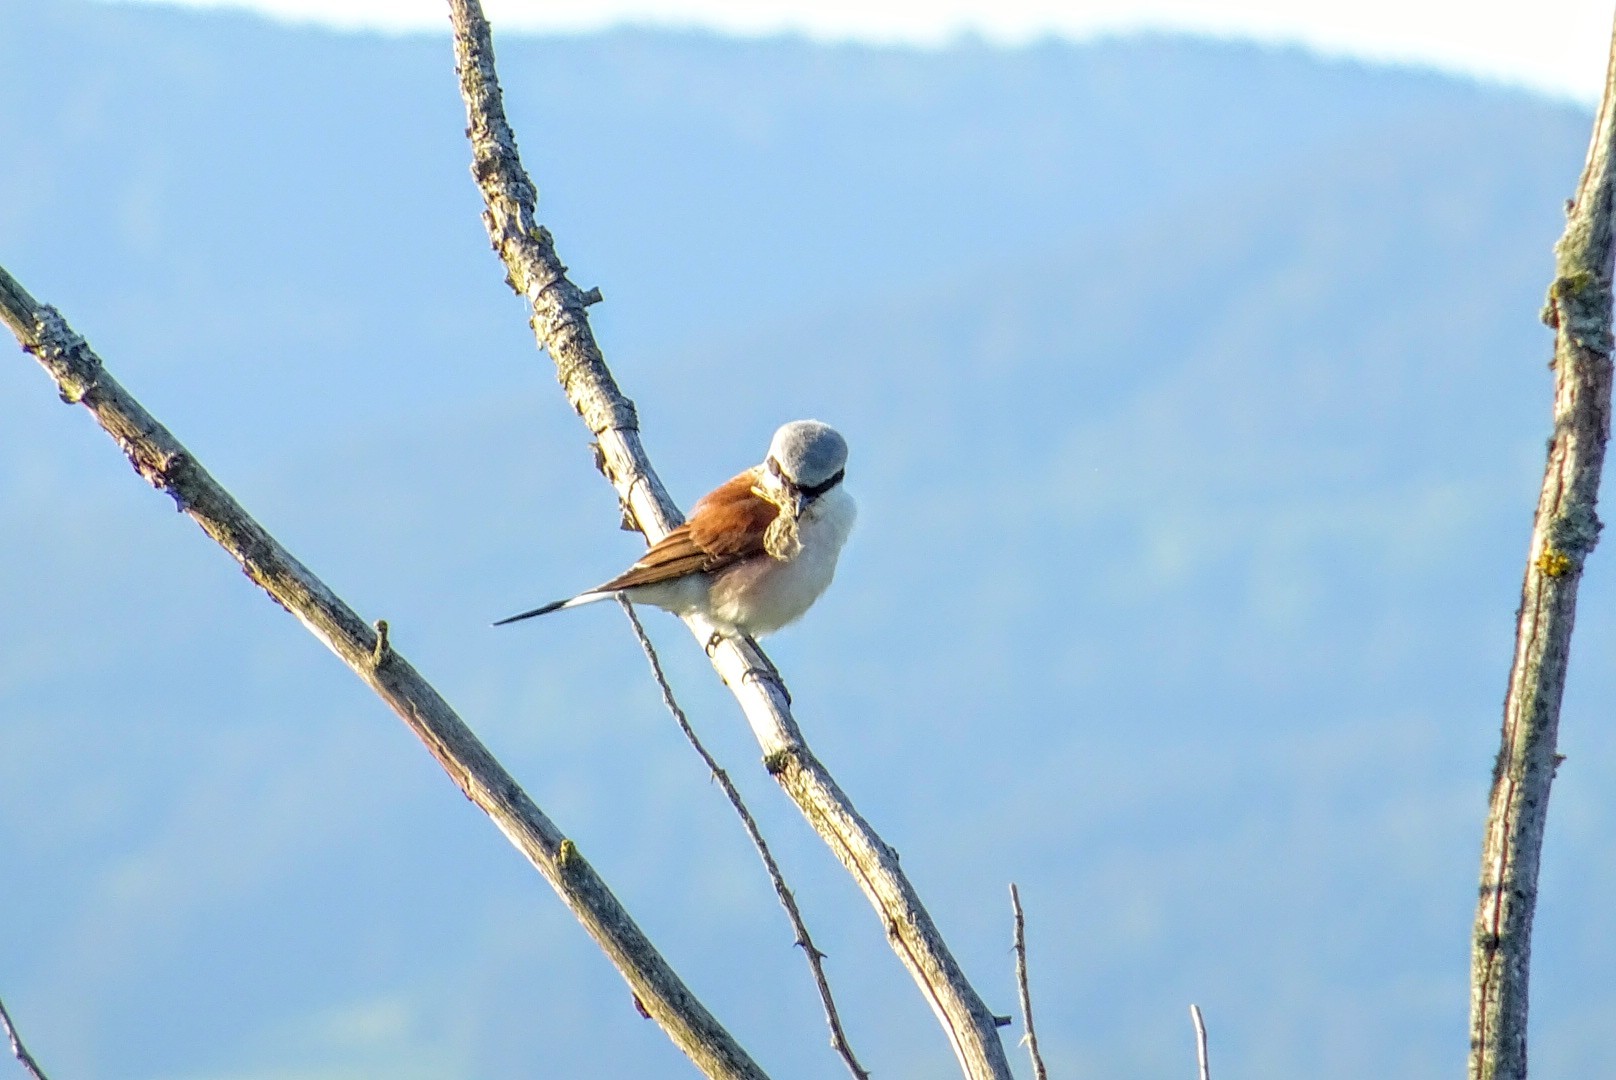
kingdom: Animalia
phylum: Chordata
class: Aves
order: Passeriformes
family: Laniidae
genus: Lanius
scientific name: Lanius collurio
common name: Red-backed shrike
